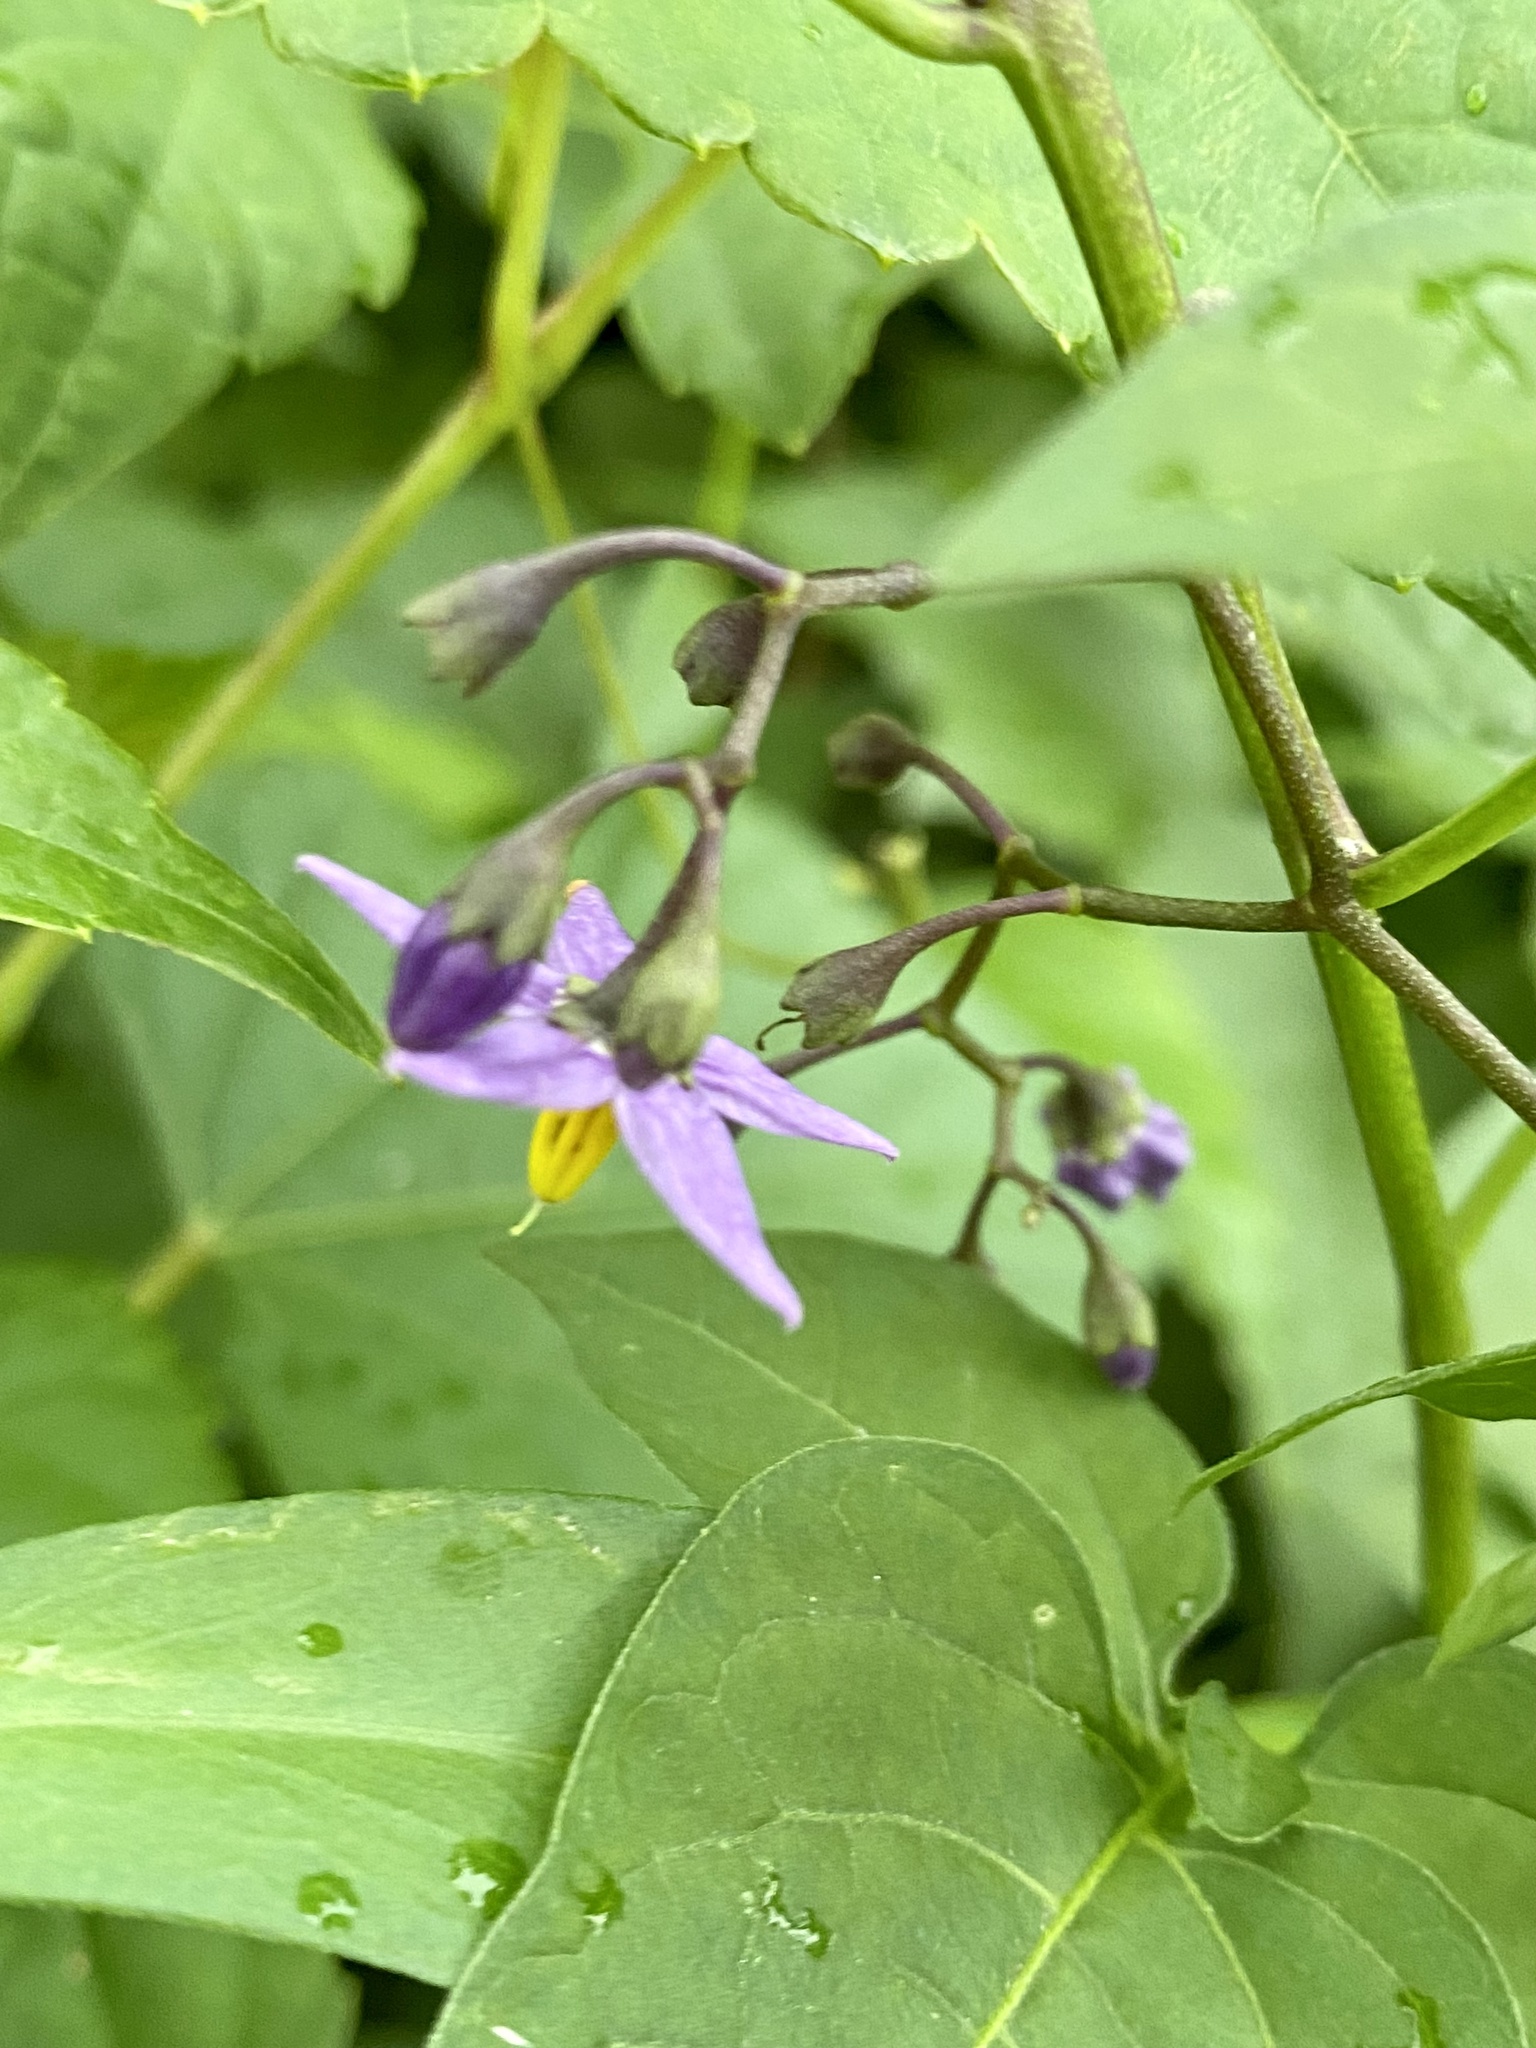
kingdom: Plantae
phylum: Tracheophyta
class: Magnoliopsida
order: Solanales
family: Solanaceae
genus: Solanum
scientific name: Solanum dulcamara
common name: Climbing nightshade
